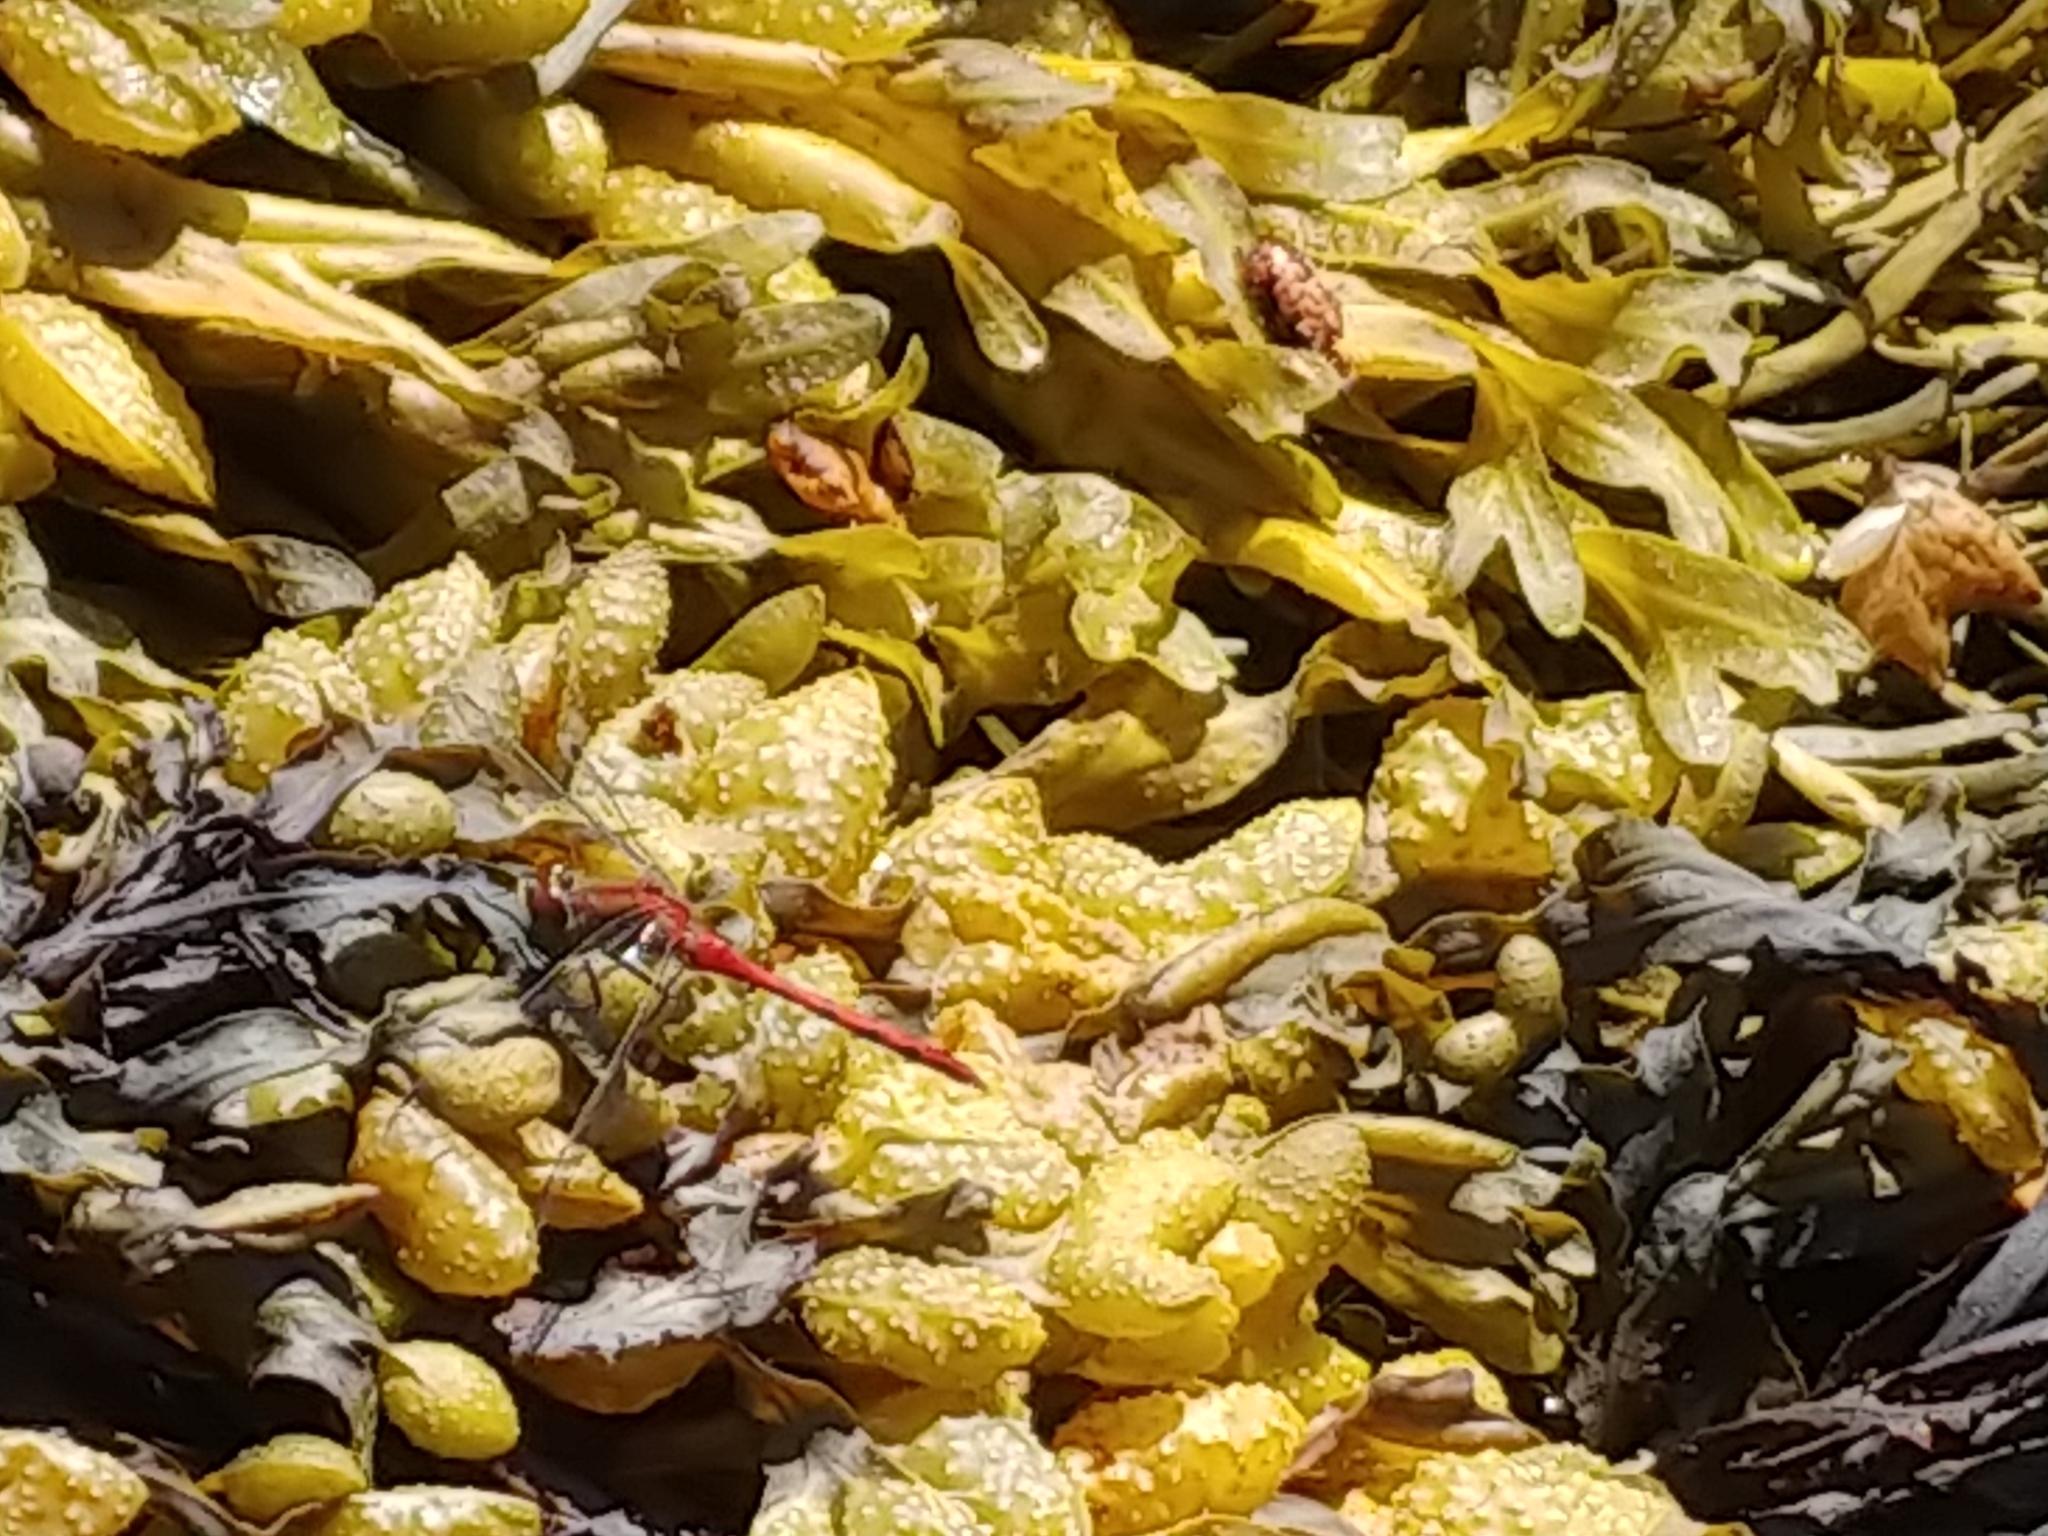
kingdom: Animalia
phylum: Arthropoda
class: Insecta
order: Odonata
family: Libellulidae
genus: Sympetrum
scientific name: Sympetrum
